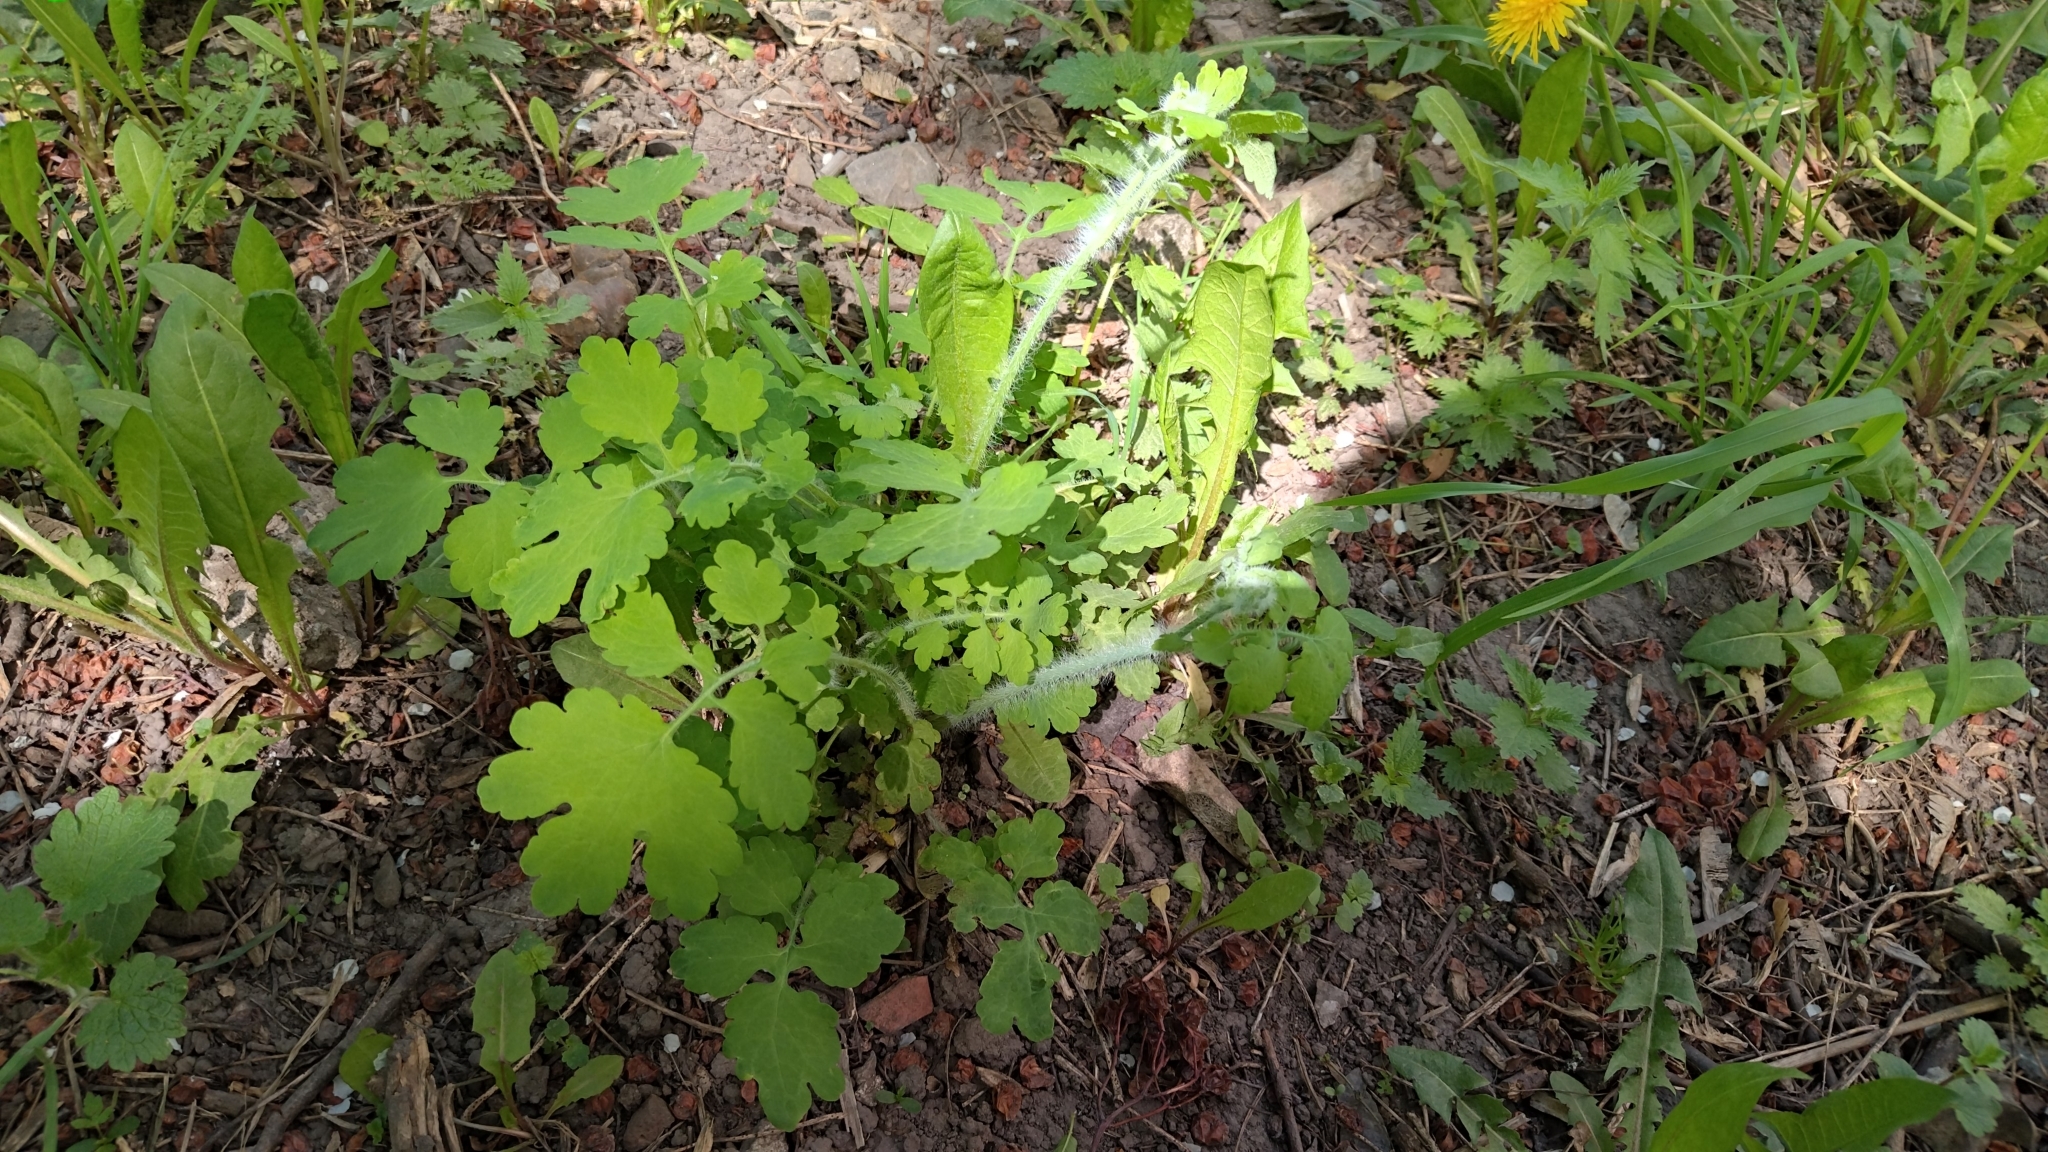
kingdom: Plantae
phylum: Tracheophyta
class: Magnoliopsida
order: Ranunculales
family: Papaveraceae
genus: Chelidonium
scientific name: Chelidonium majus
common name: Greater celandine
